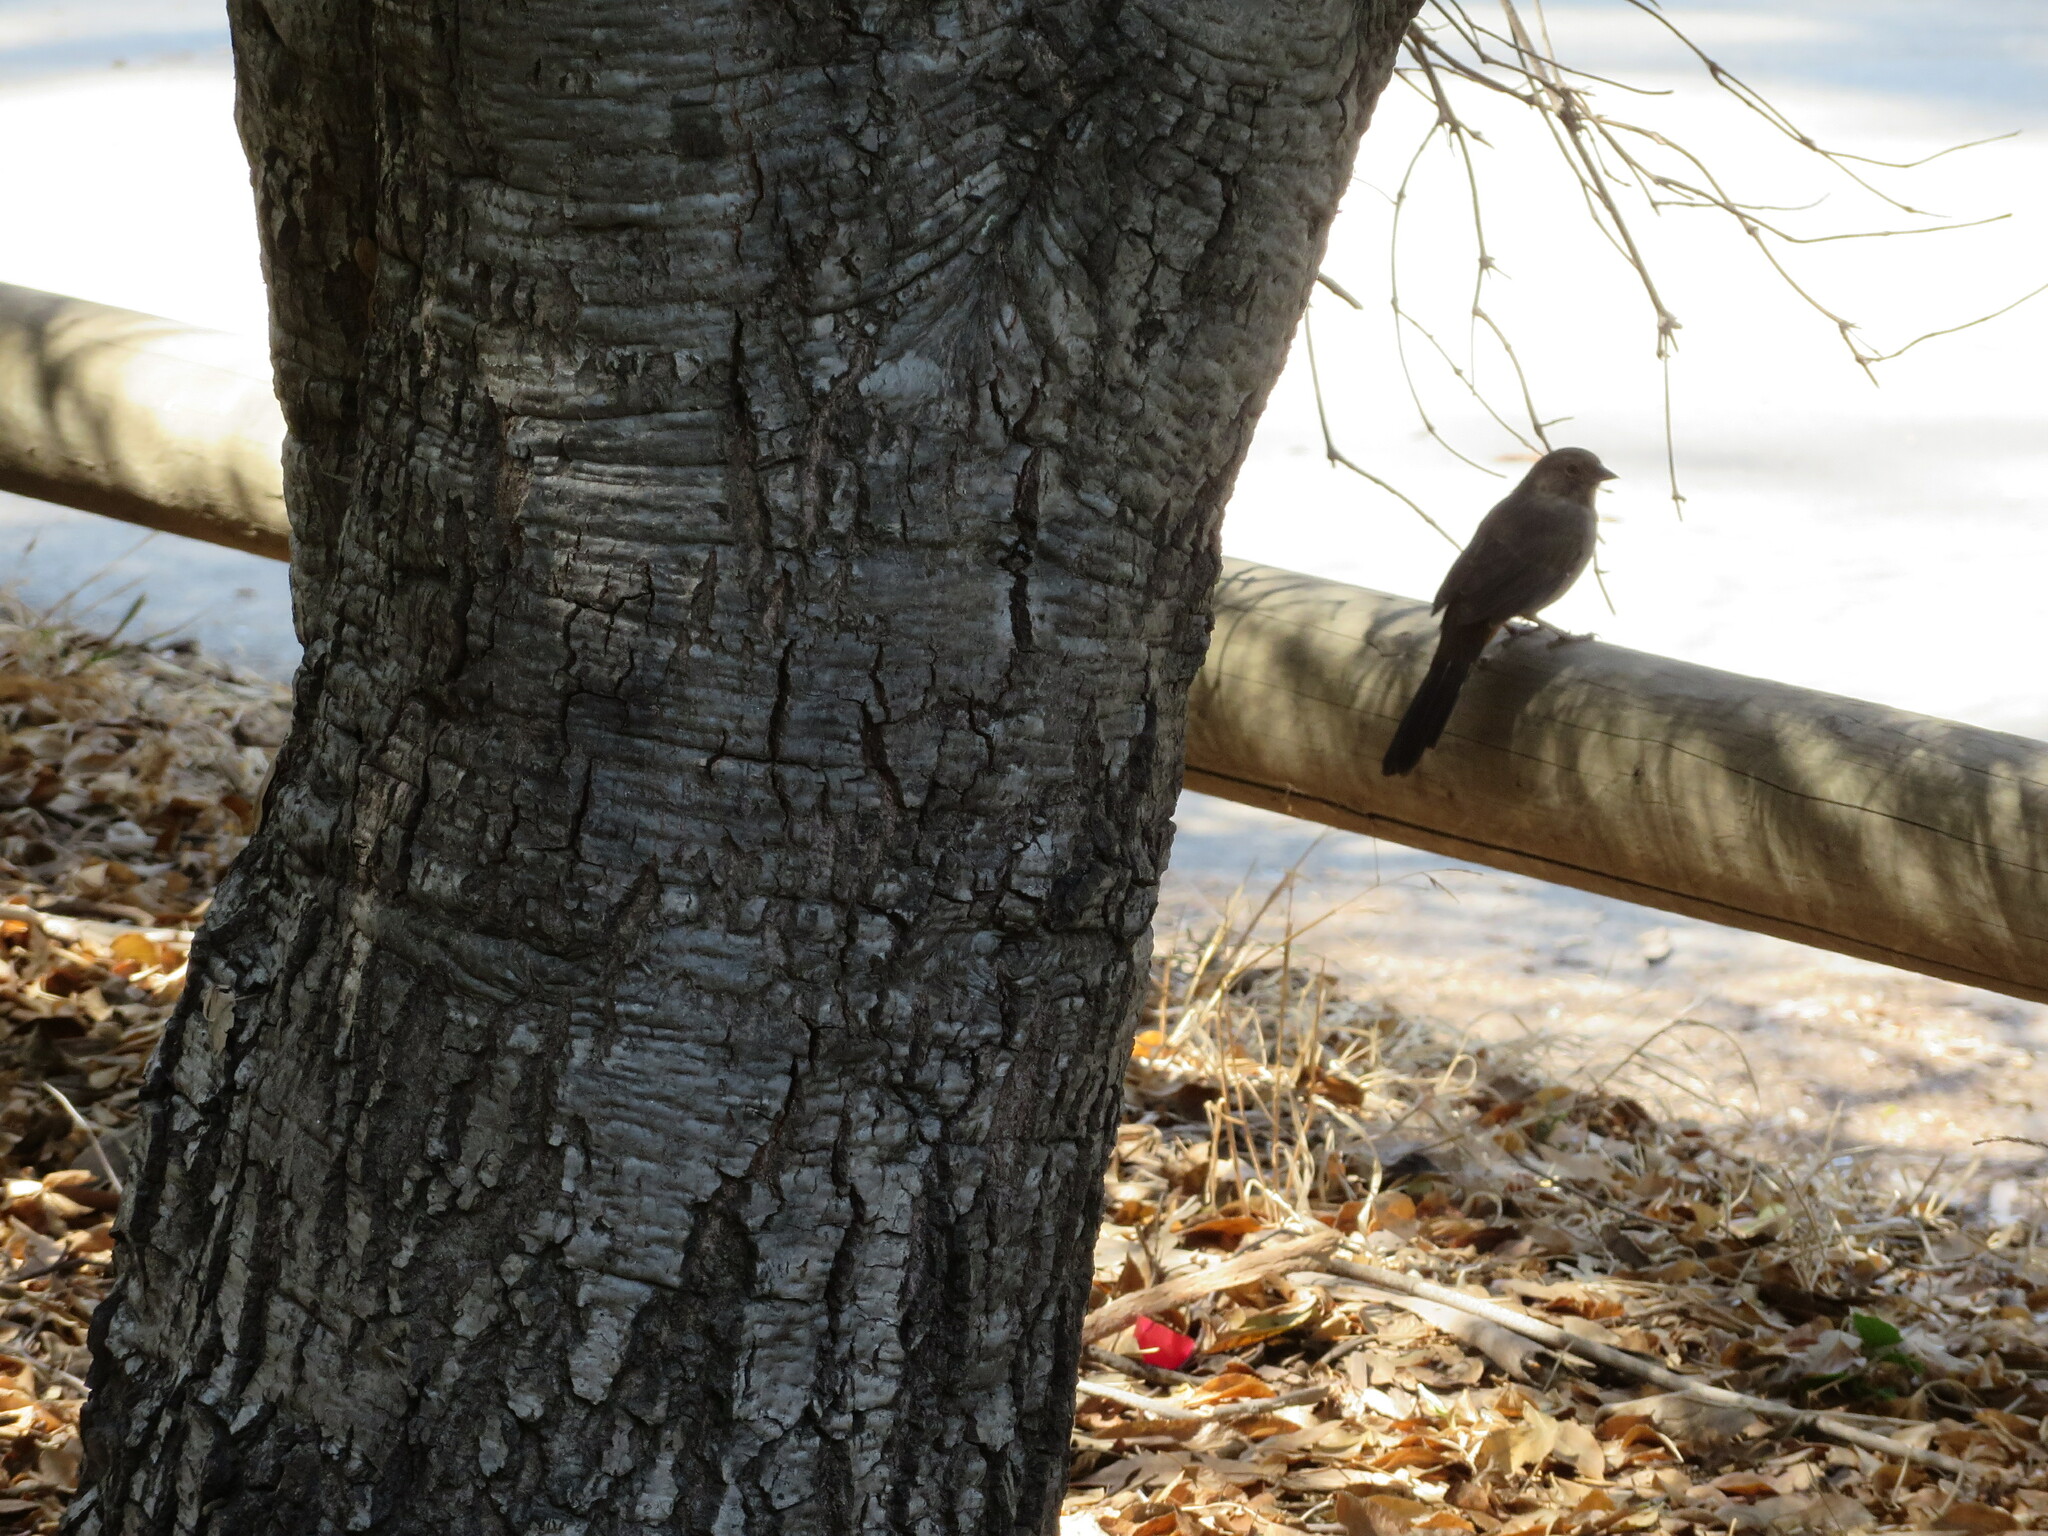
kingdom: Animalia
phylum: Chordata
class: Aves
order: Passeriformes
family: Passerellidae
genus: Melozone
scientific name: Melozone crissalis
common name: California towhee
